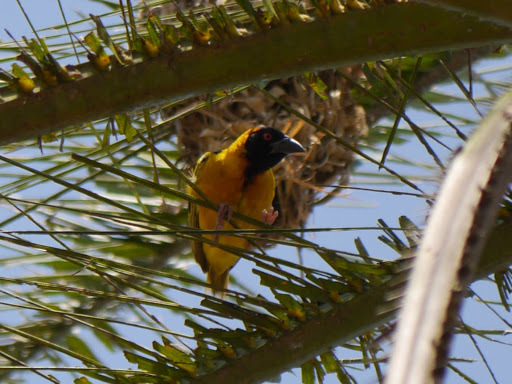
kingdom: Animalia
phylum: Chordata
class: Aves
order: Passeriformes
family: Ploceidae
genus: Ploceus
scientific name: Ploceus cucullatus
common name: Village weaver
